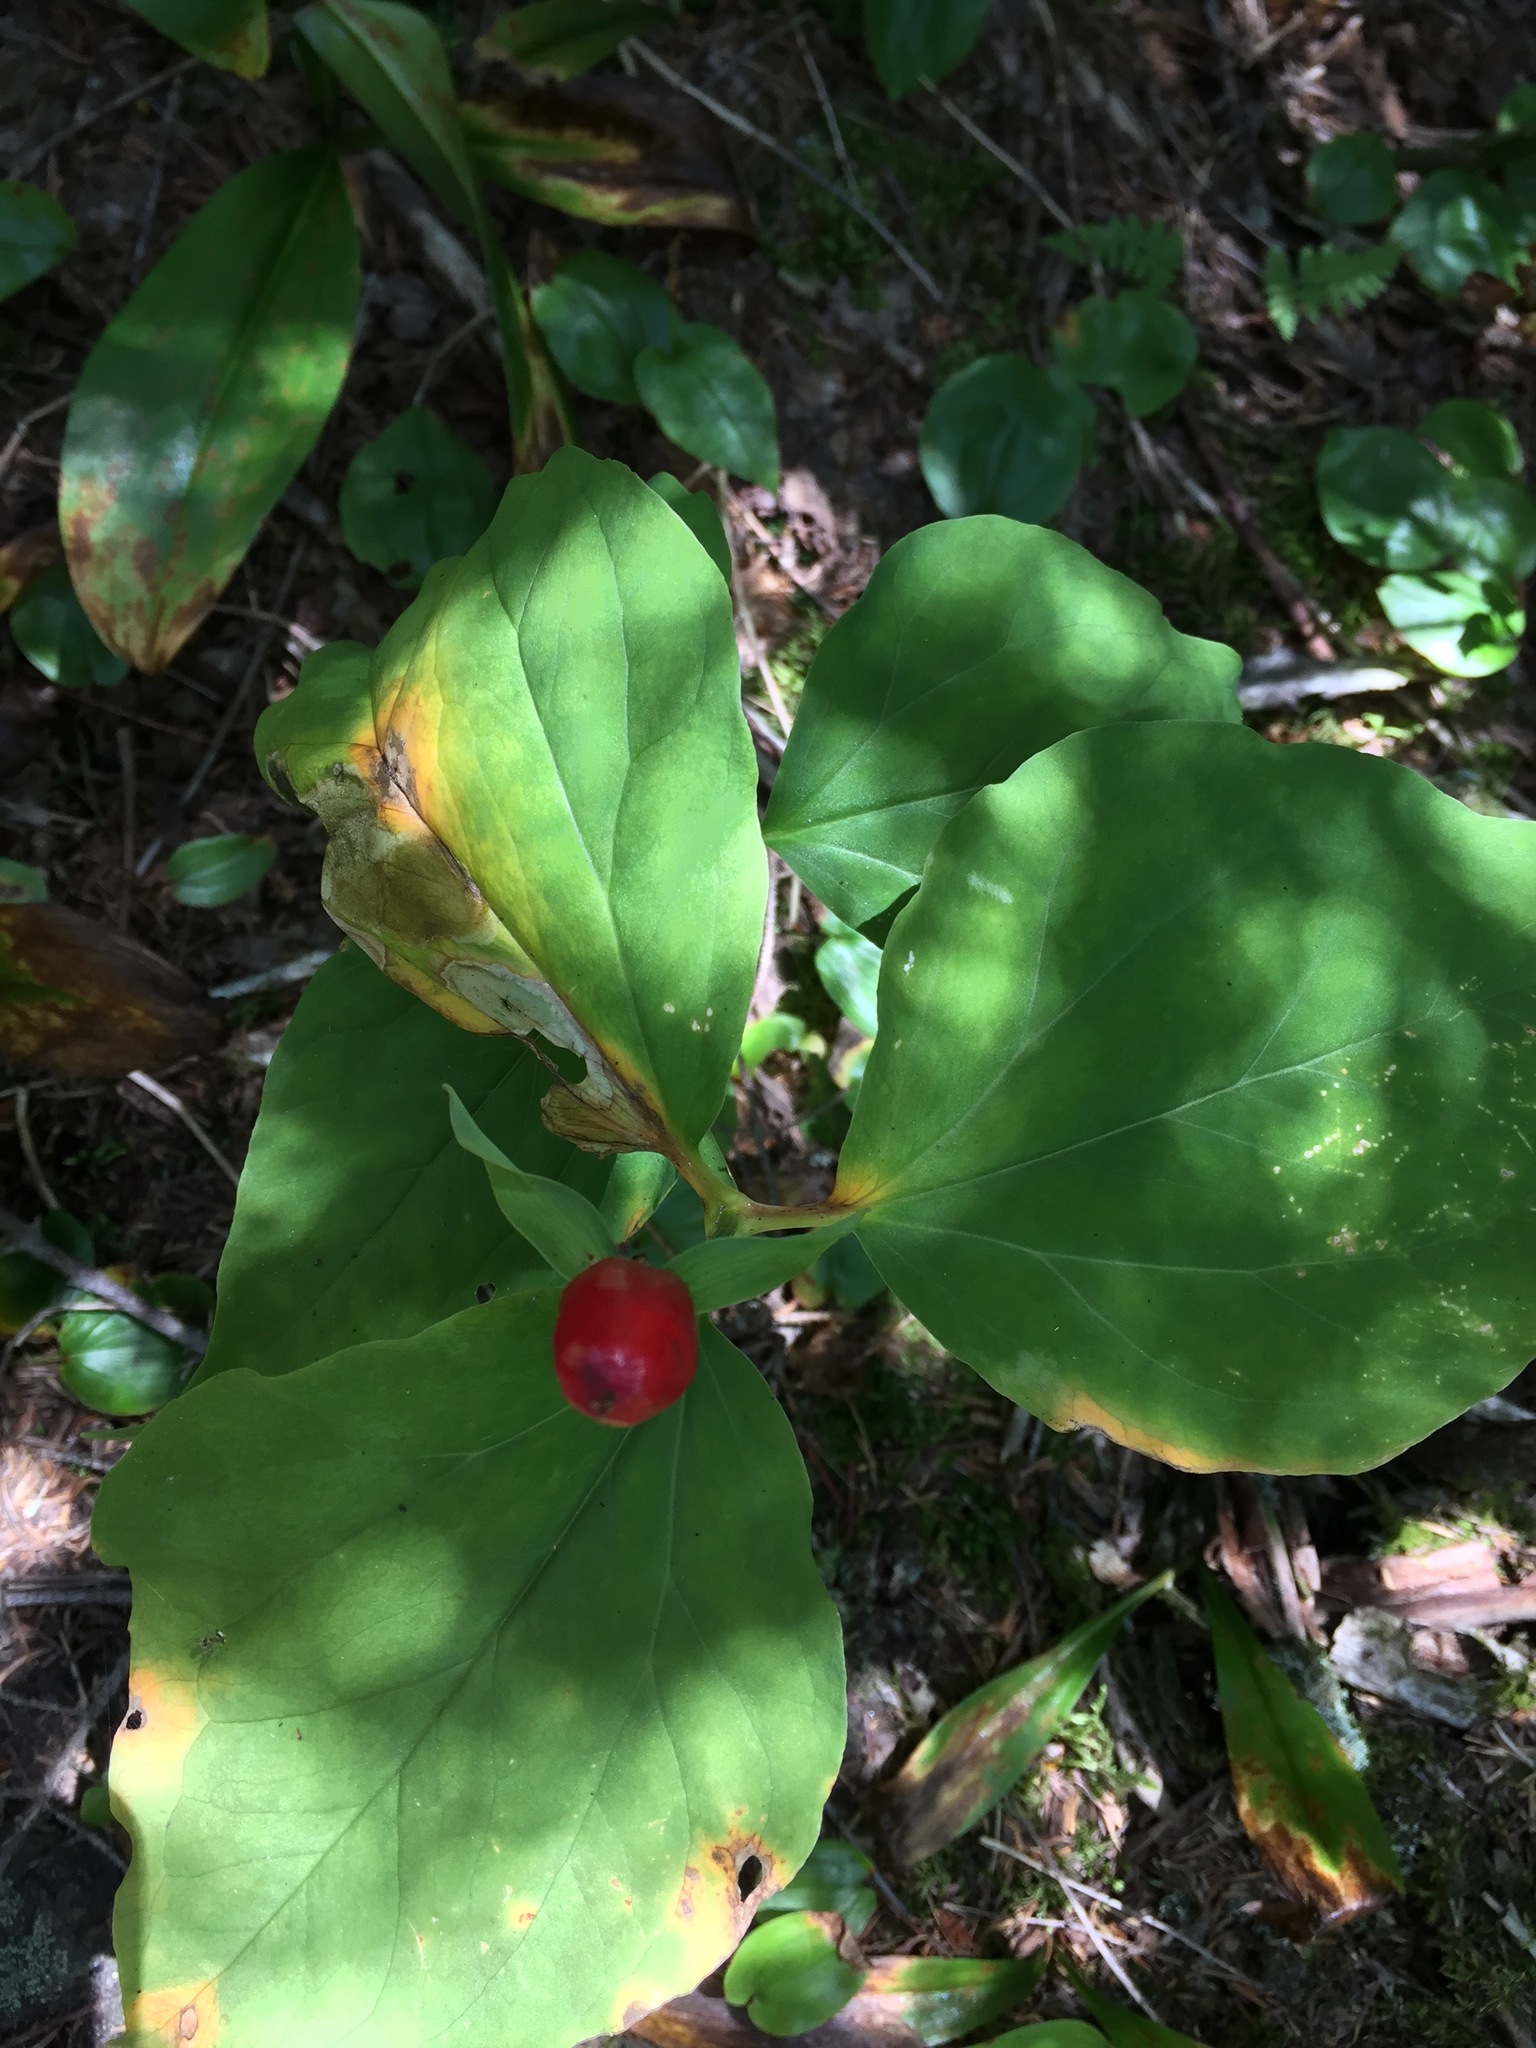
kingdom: Plantae
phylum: Tracheophyta
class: Liliopsida
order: Liliales
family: Melanthiaceae
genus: Trillium
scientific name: Trillium undulatum
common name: Paint trillium
